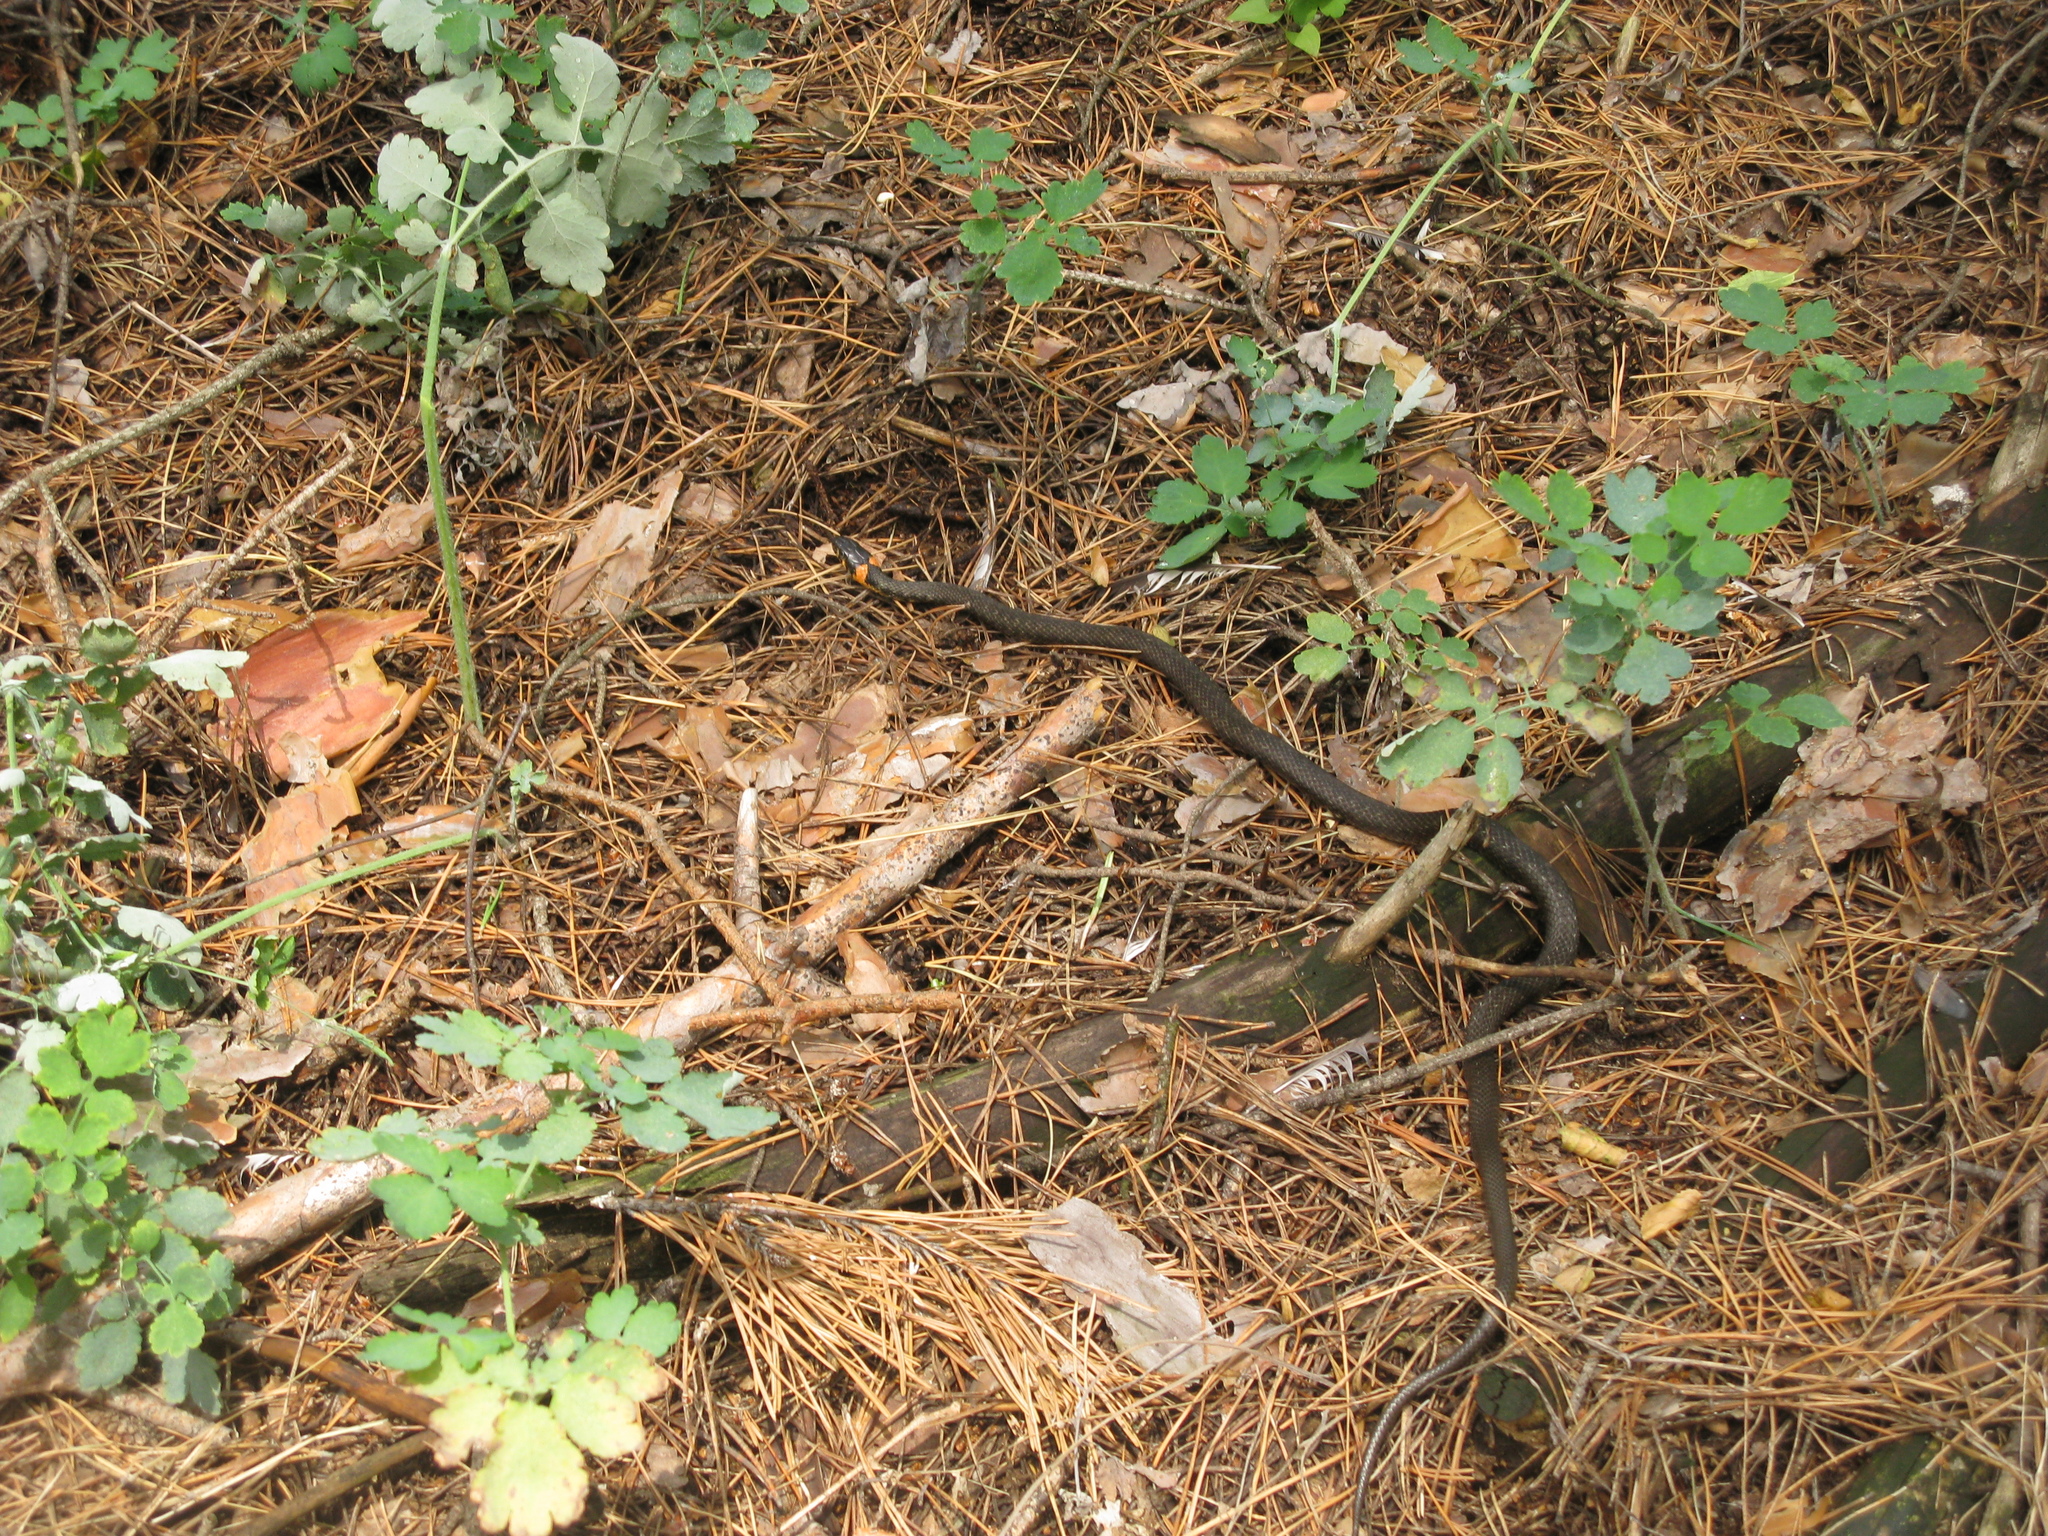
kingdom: Animalia
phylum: Chordata
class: Squamata
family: Colubridae
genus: Natrix
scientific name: Natrix natrix
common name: Grass snake
